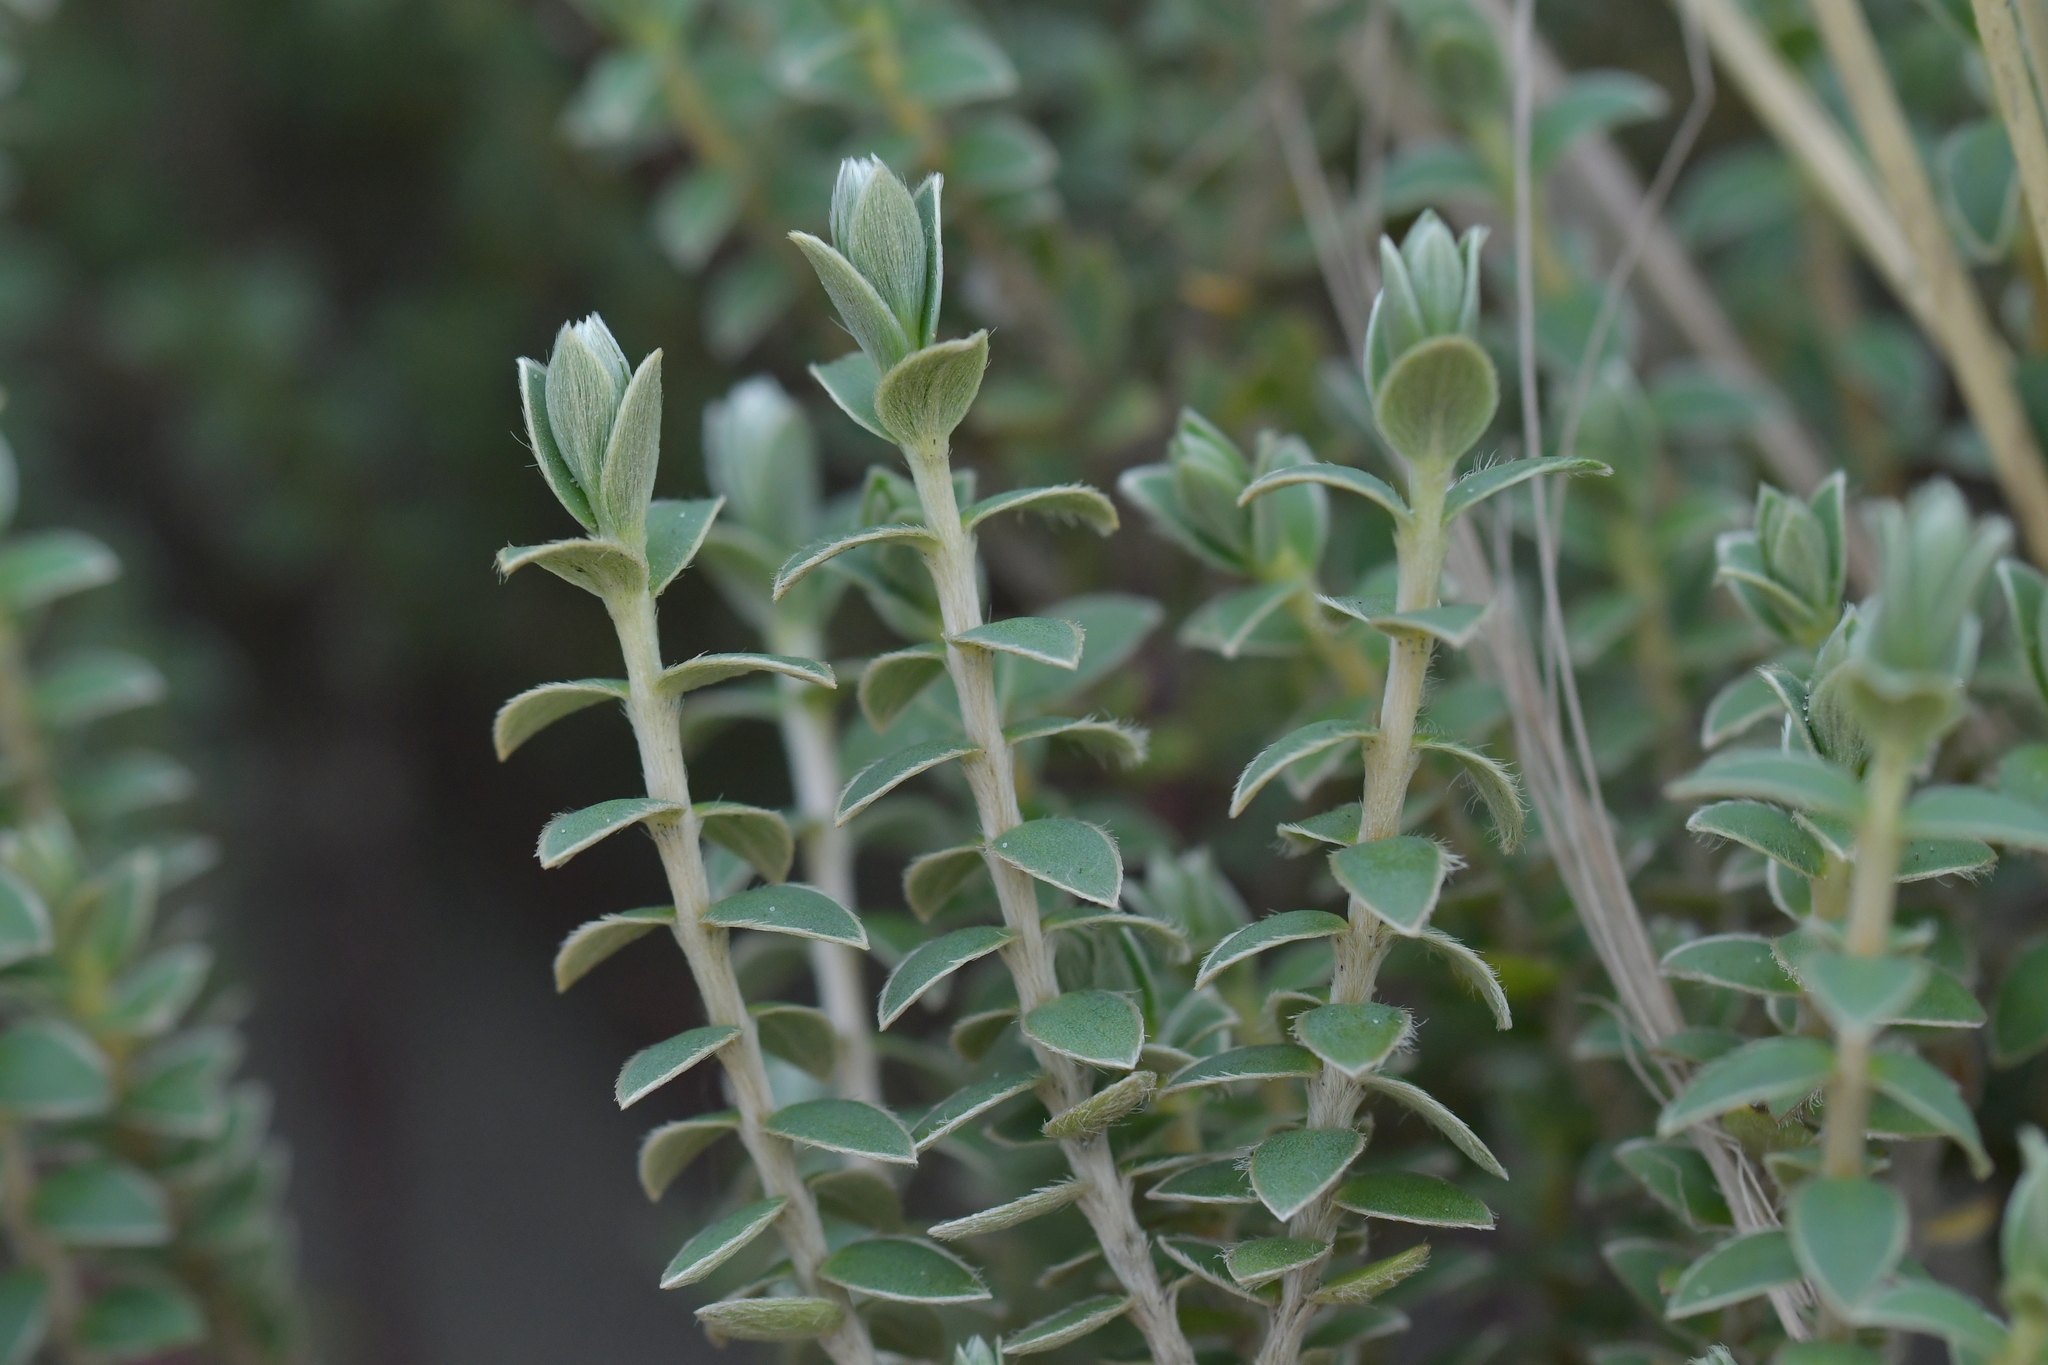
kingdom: Plantae
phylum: Tracheophyta
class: Magnoliopsida
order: Malvales
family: Thymelaeaceae
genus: Pimelea
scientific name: Pimelea villosa
